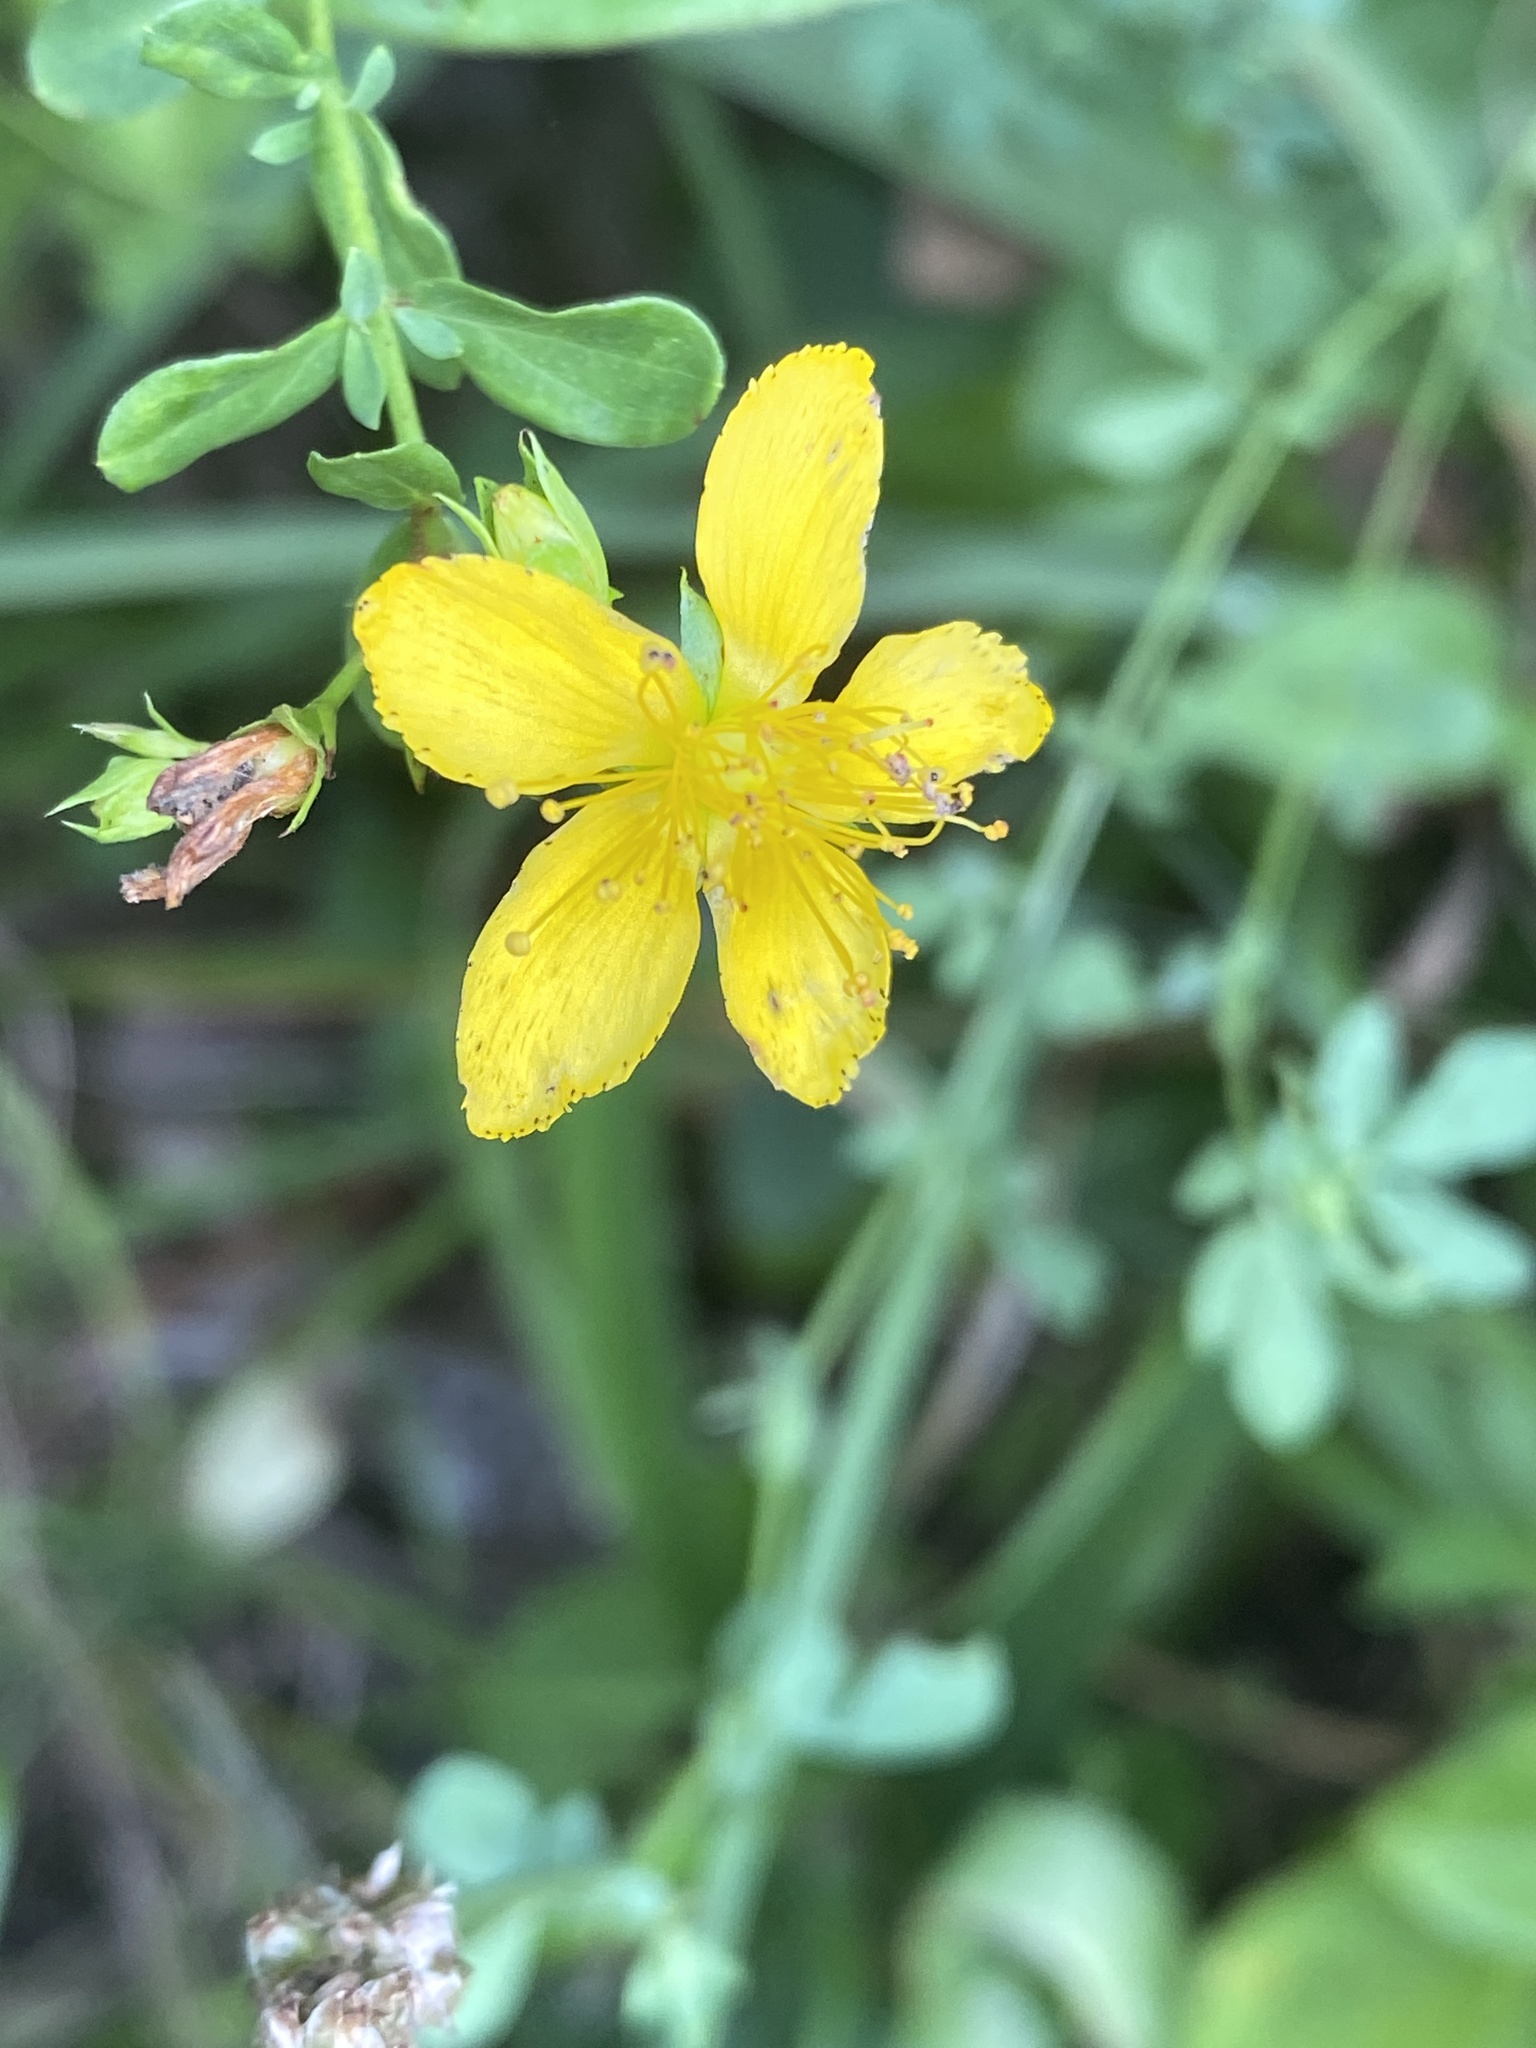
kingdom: Plantae
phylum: Tracheophyta
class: Magnoliopsida
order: Malpighiales
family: Hypericaceae
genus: Hypericum
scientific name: Hypericum perforatum
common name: Common st. johnswort
